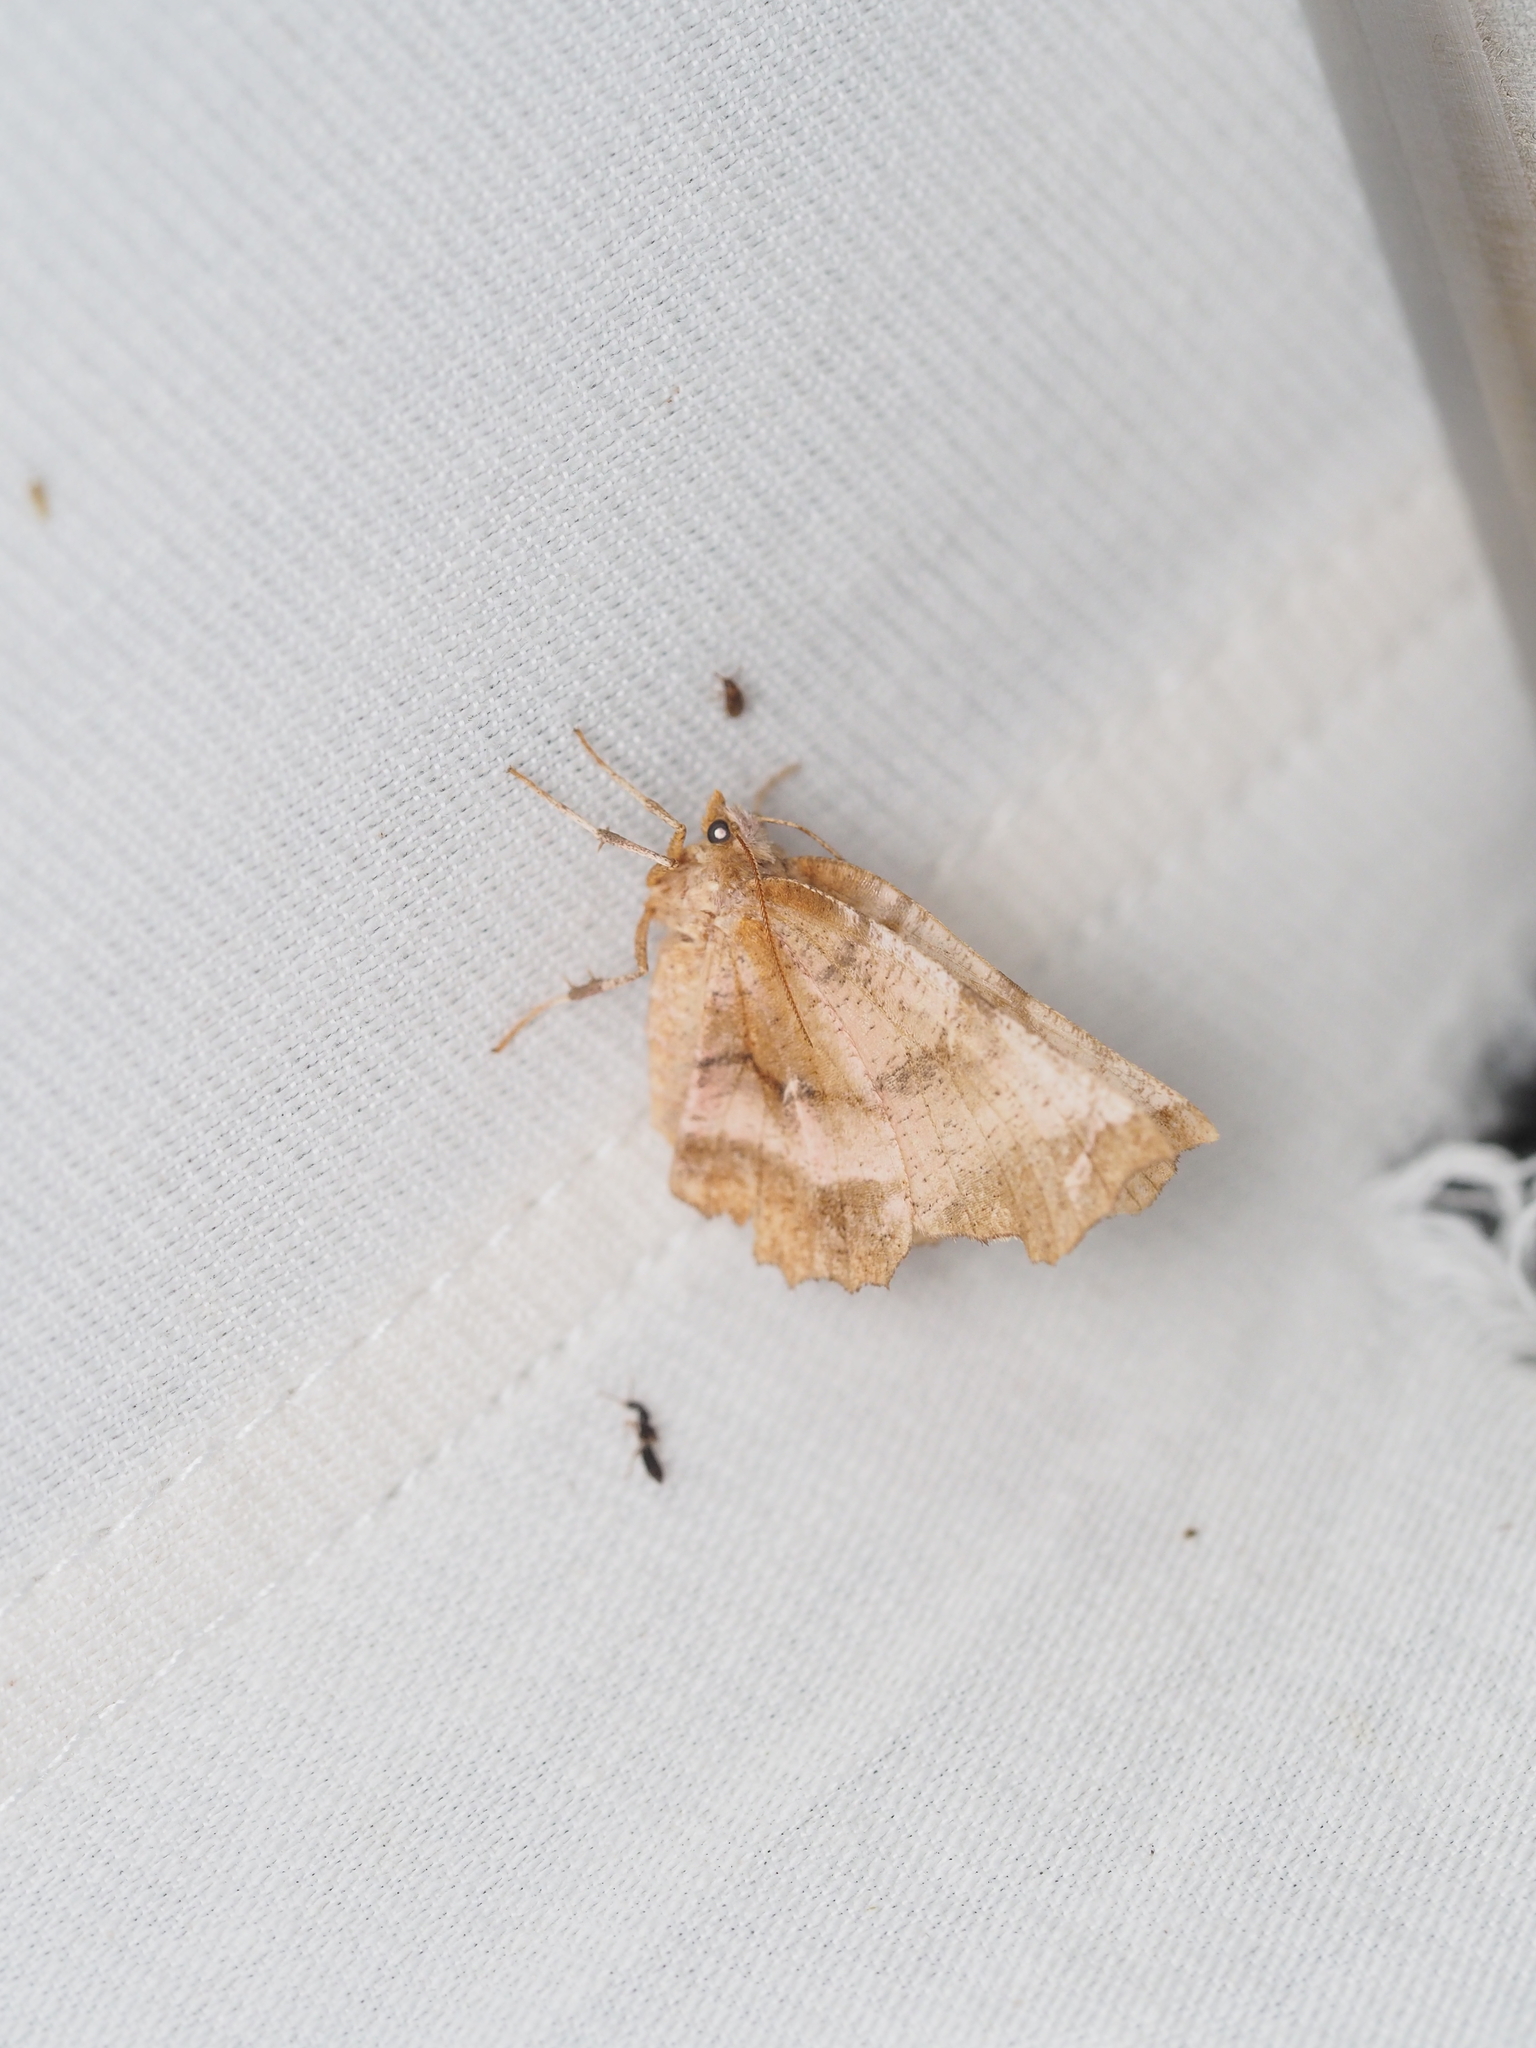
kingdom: Animalia
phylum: Arthropoda
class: Insecta
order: Lepidoptera
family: Geometridae
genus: Selenia
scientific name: Selenia dentaria
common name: Early thorn
